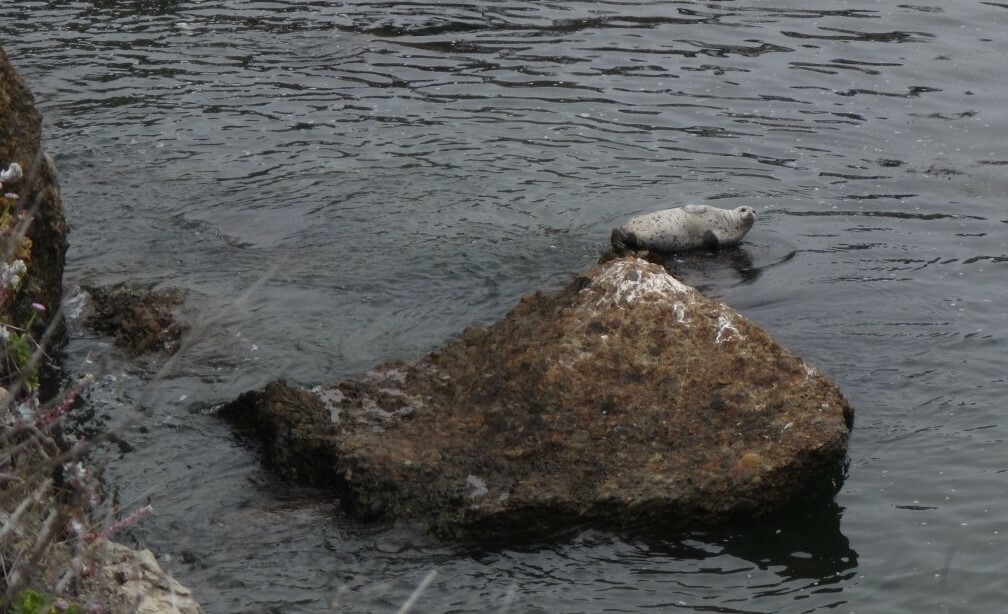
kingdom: Animalia
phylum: Chordata
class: Mammalia
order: Carnivora
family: Phocidae
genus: Phoca
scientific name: Phoca vitulina
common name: Harbor seal
